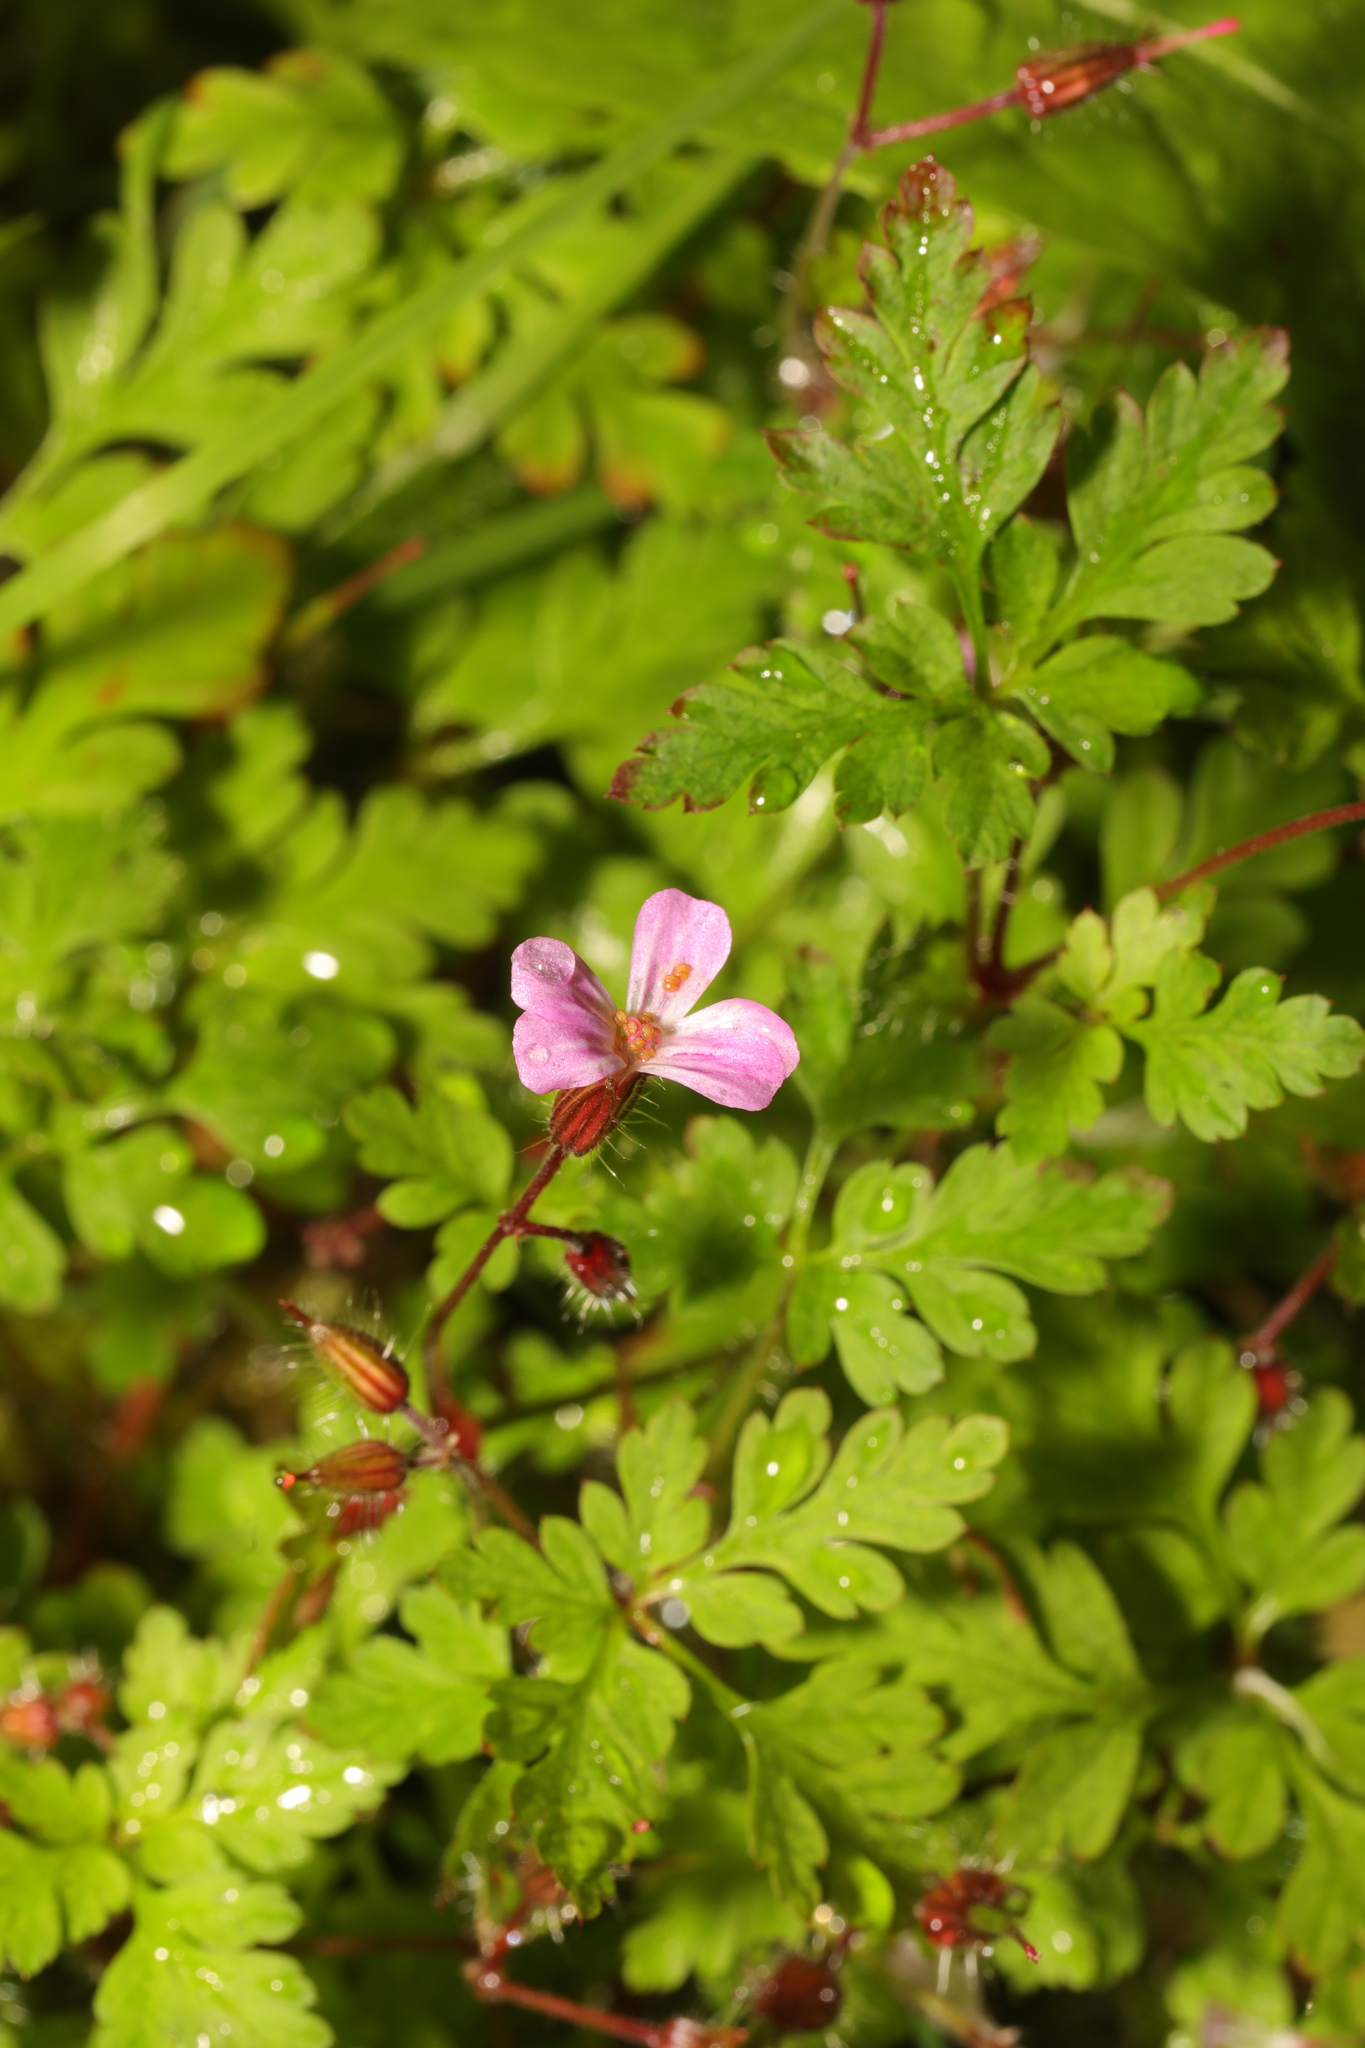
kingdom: Plantae
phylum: Tracheophyta
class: Magnoliopsida
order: Geraniales
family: Geraniaceae
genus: Geranium
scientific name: Geranium robertianum
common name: Herb-robert
